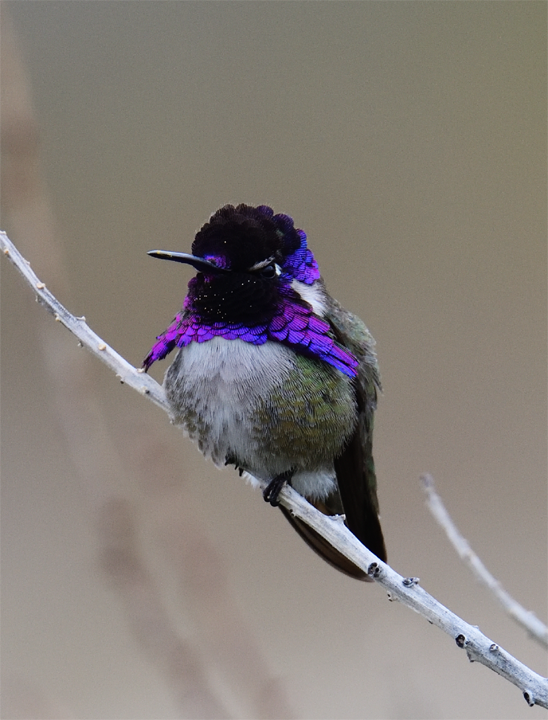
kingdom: Animalia
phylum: Chordata
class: Aves
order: Apodiformes
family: Trochilidae
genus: Calypte
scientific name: Calypte costae
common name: Costa's hummingbird
